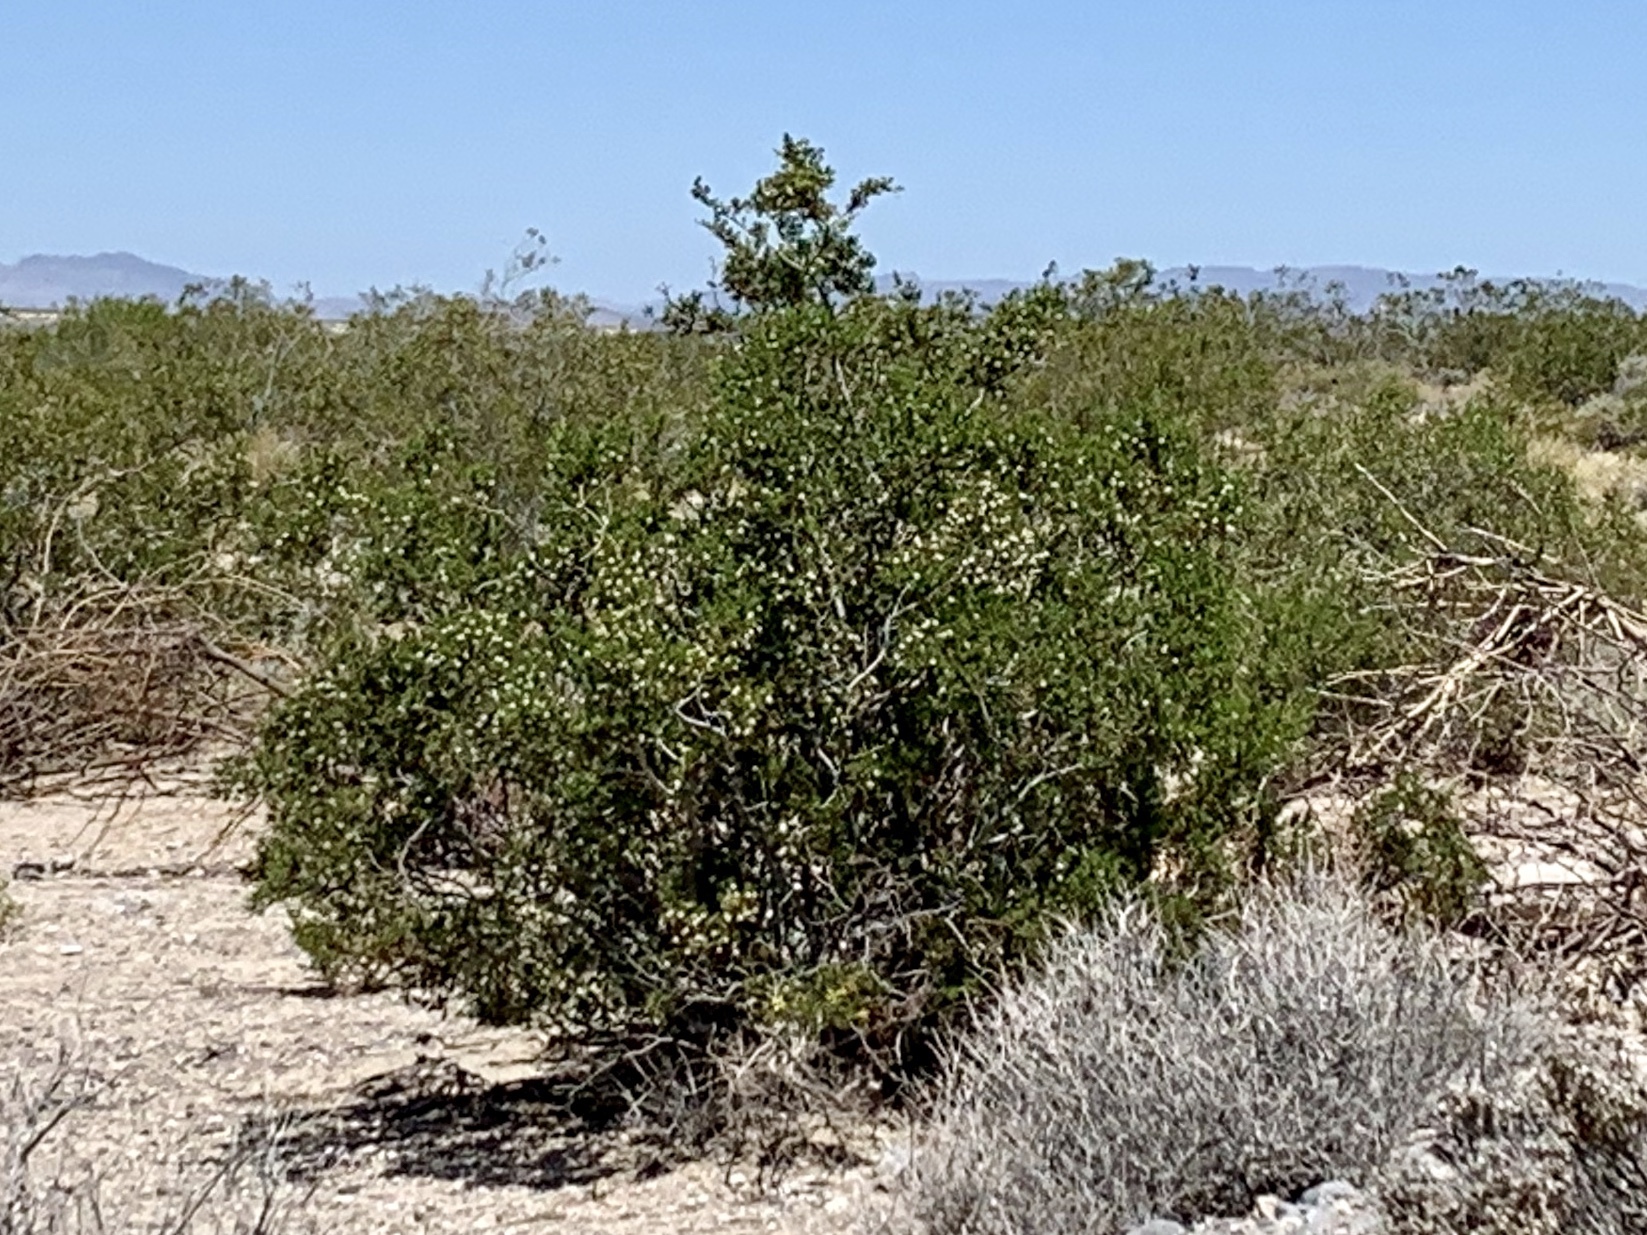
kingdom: Plantae
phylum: Tracheophyta
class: Magnoliopsida
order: Zygophyllales
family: Zygophyllaceae
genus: Larrea
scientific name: Larrea tridentata
